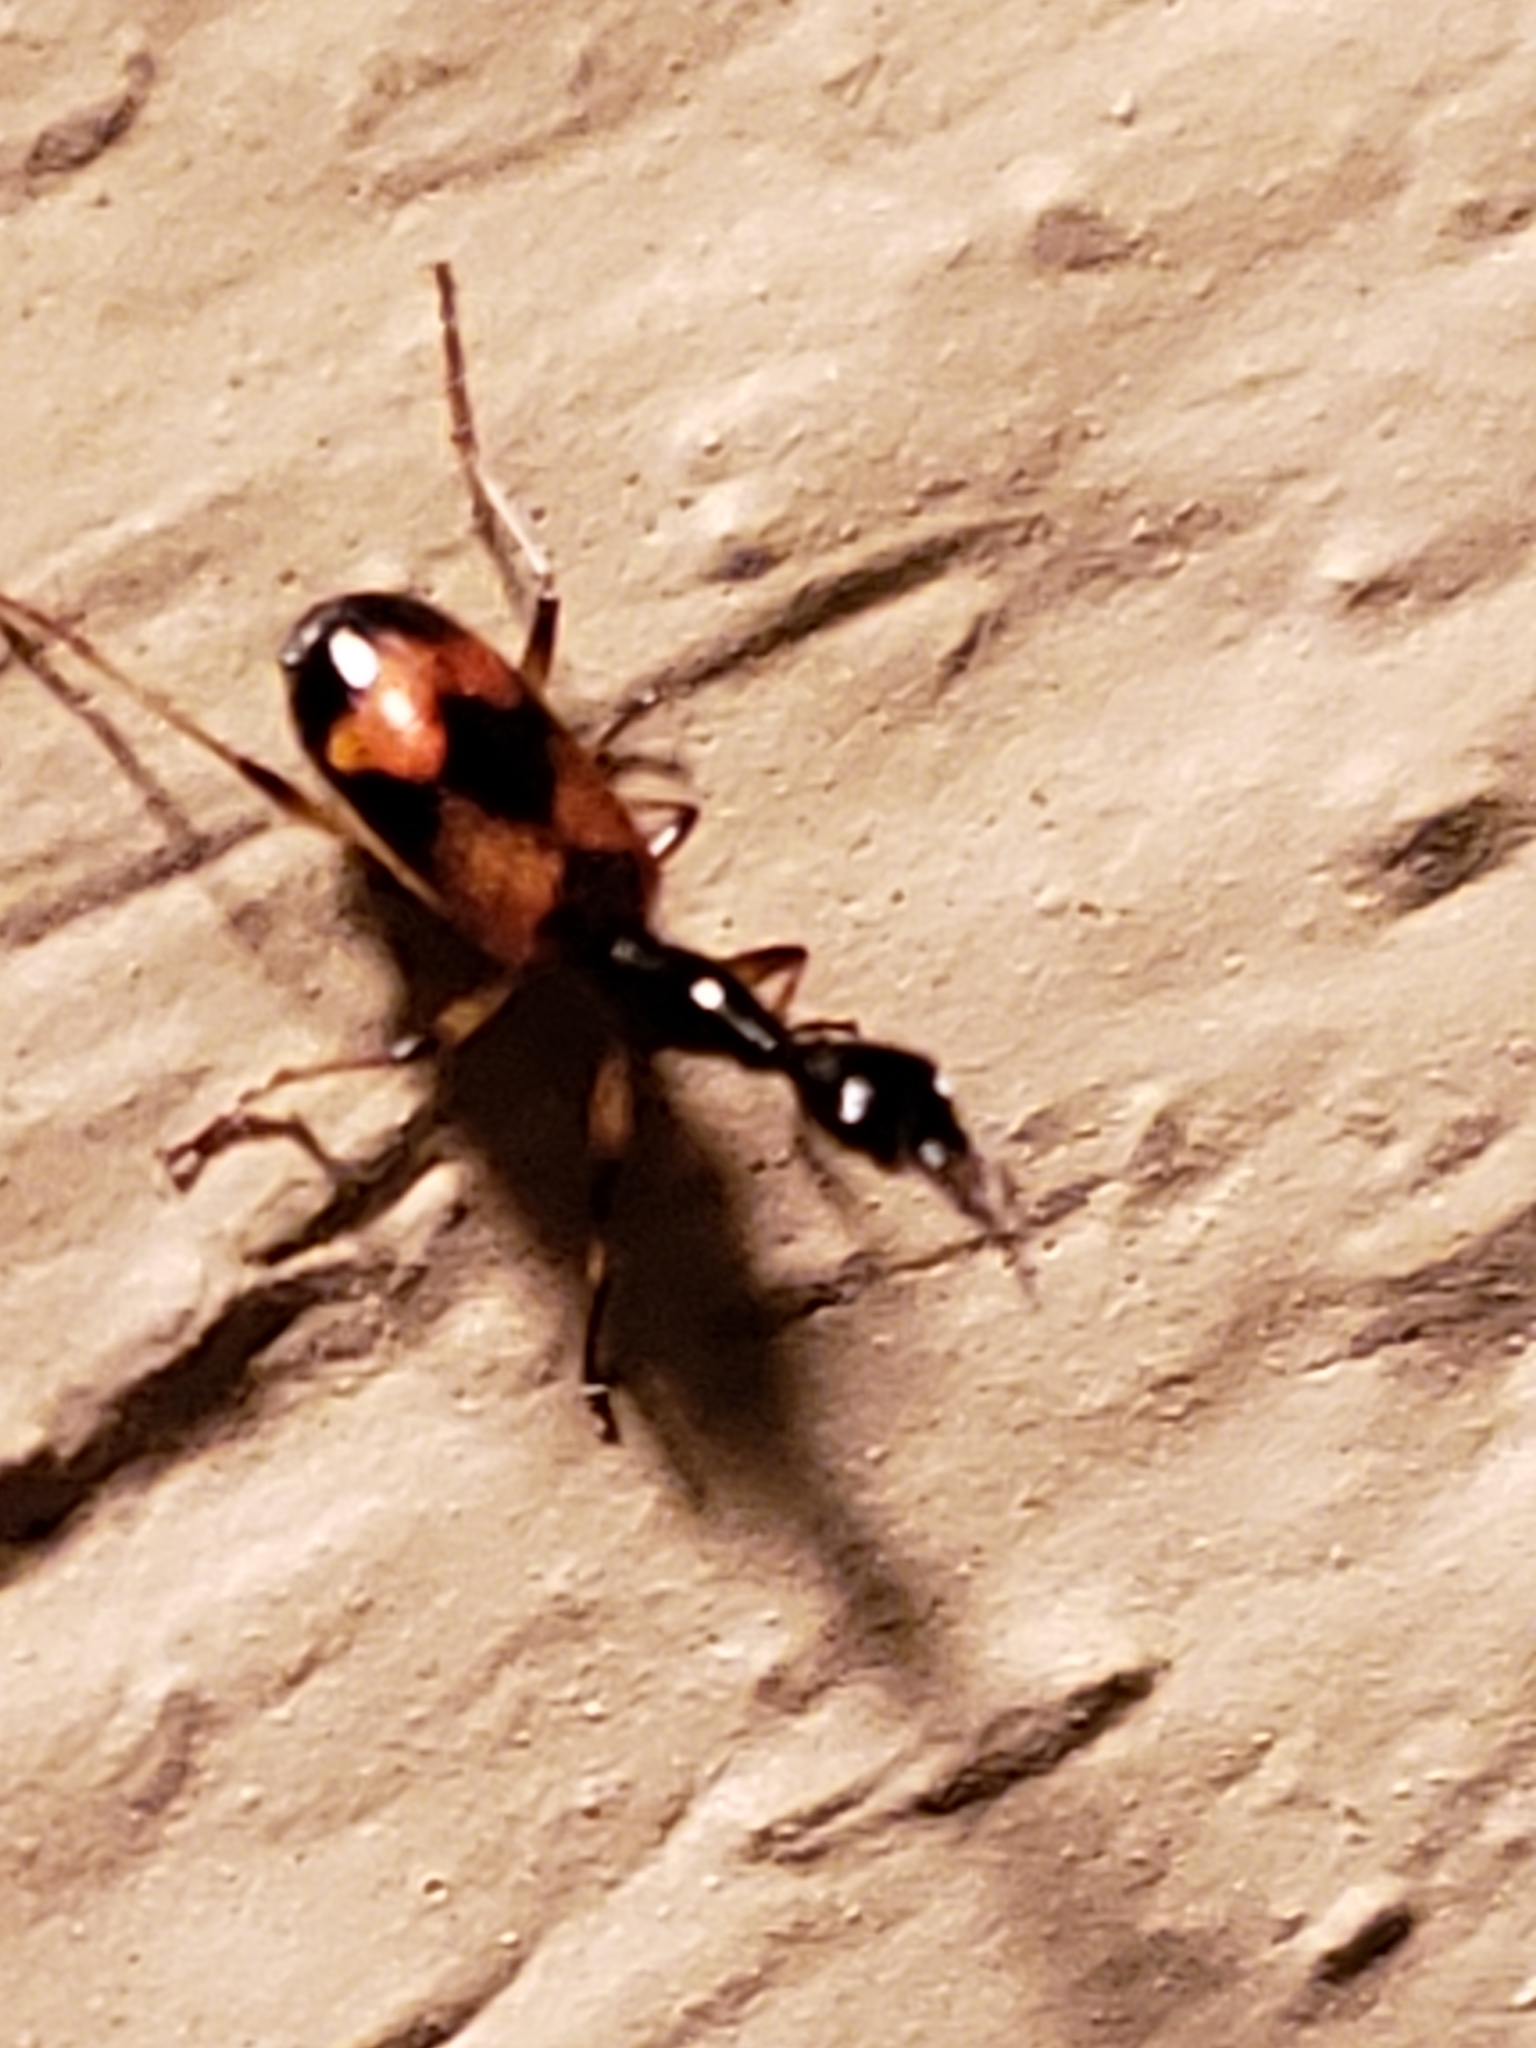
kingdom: Animalia
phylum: Arthropoda
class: Insecta
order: Coleoptera
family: Carabidae
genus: Colliuris
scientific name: Colliuris pensylvanica
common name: Long-necked ground beetle
